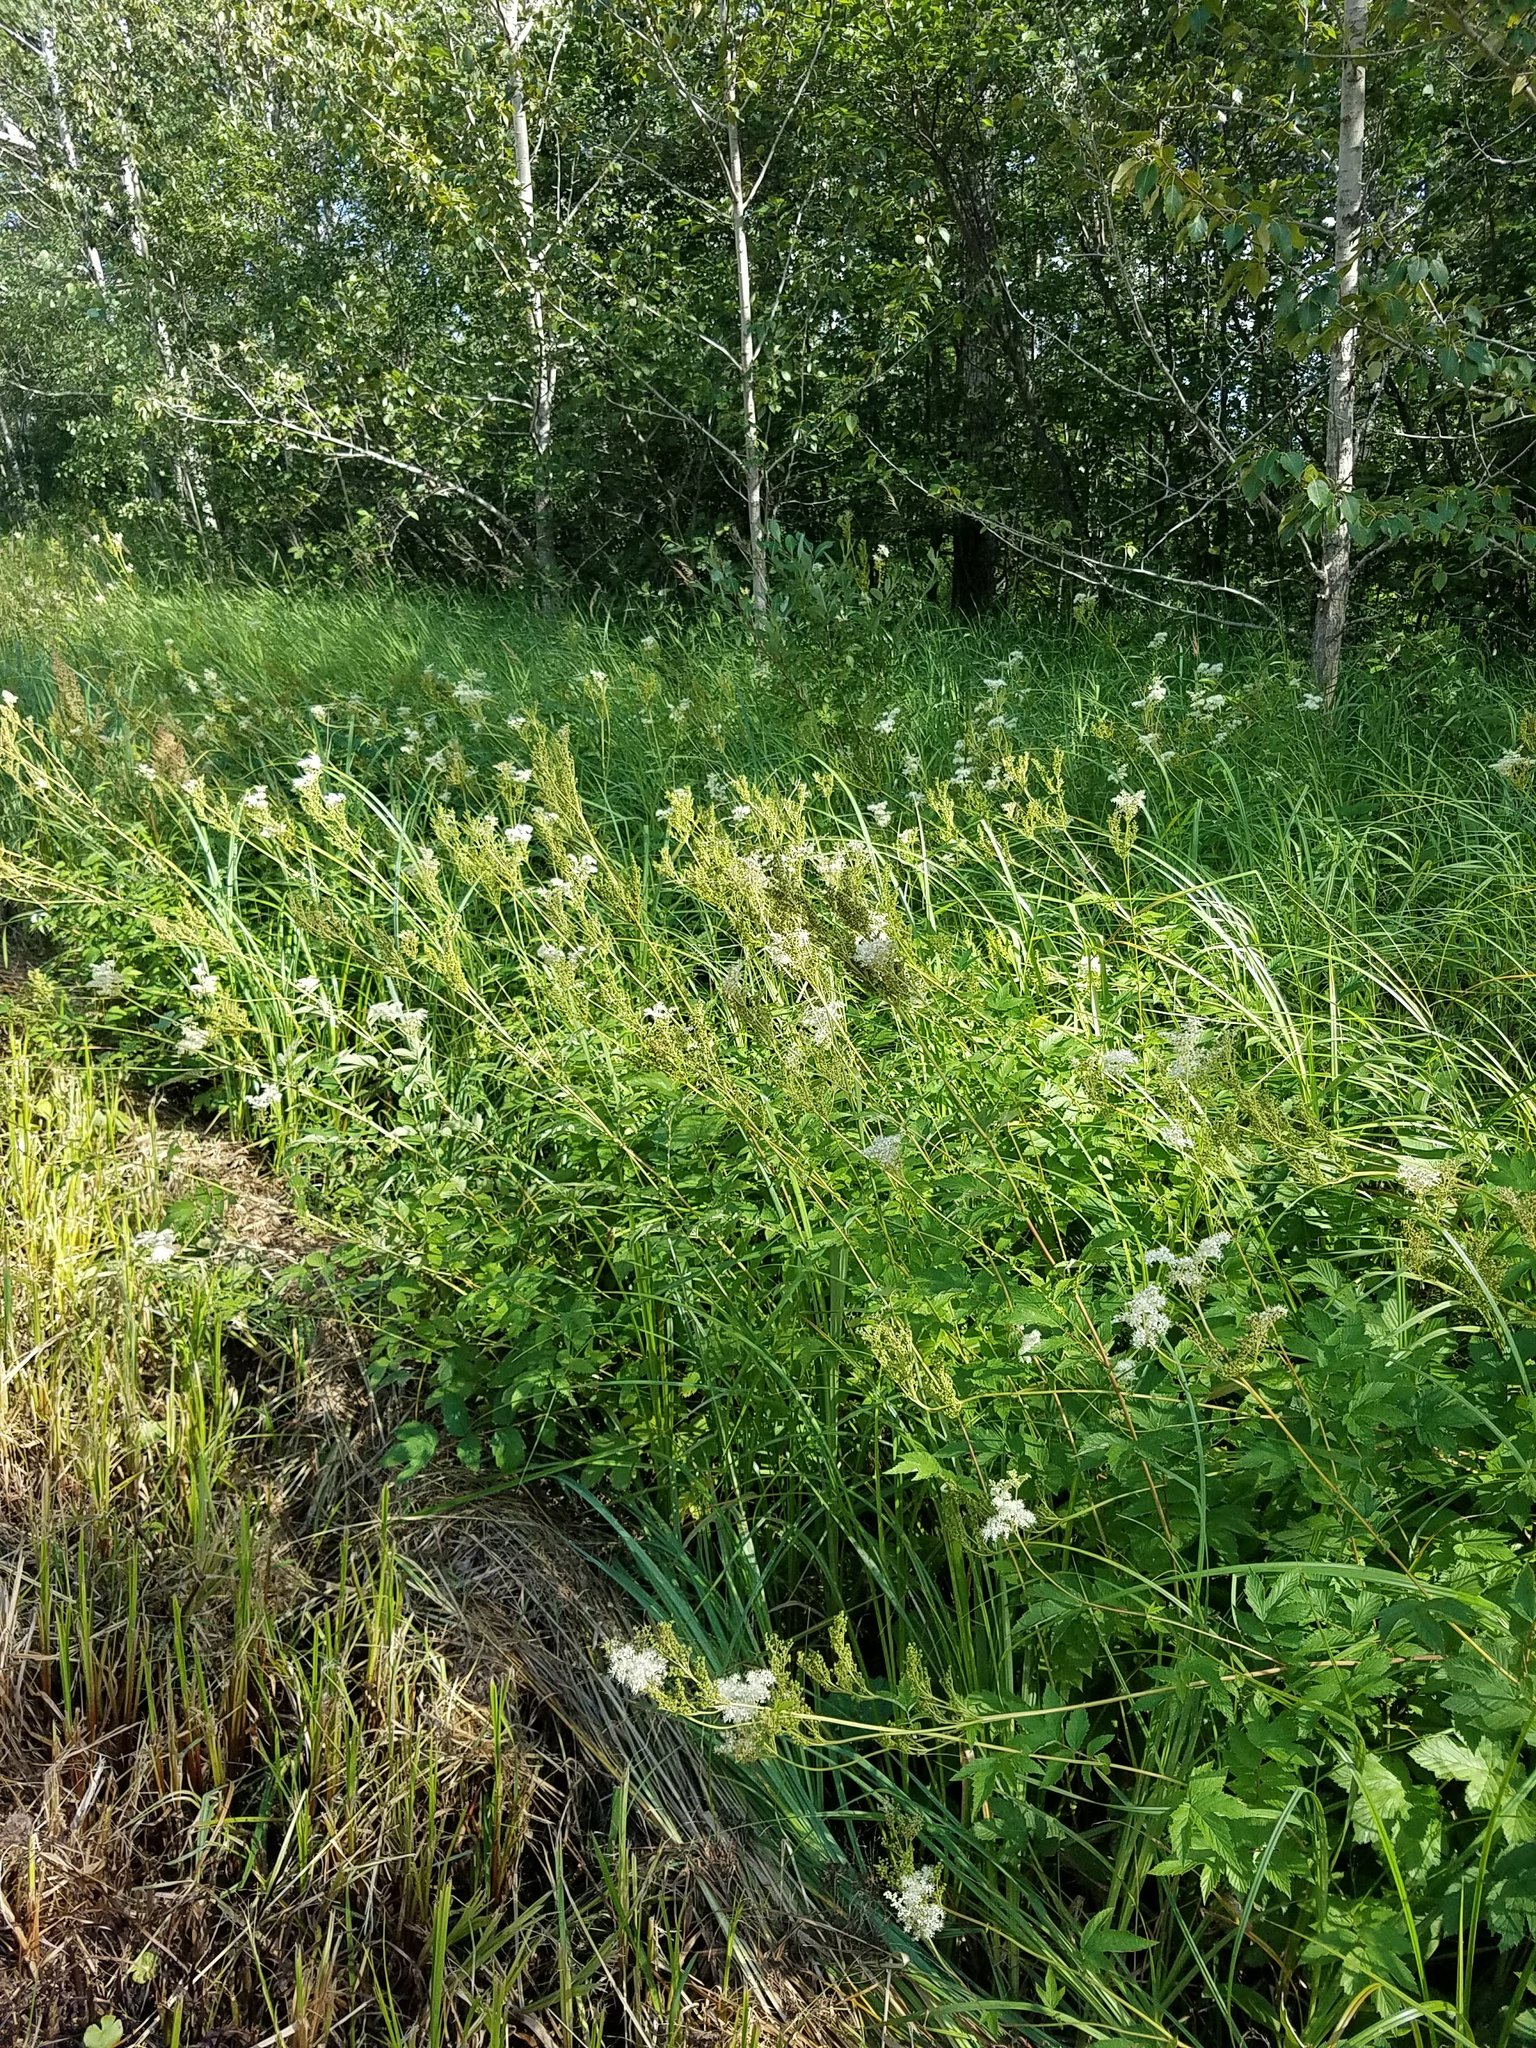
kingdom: Plantae
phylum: Tracheophyta
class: Magnoliopsida
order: Rosales
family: Rosaceae
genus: Filipendula
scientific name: Filipendula ulmaria
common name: Meadowsweet
